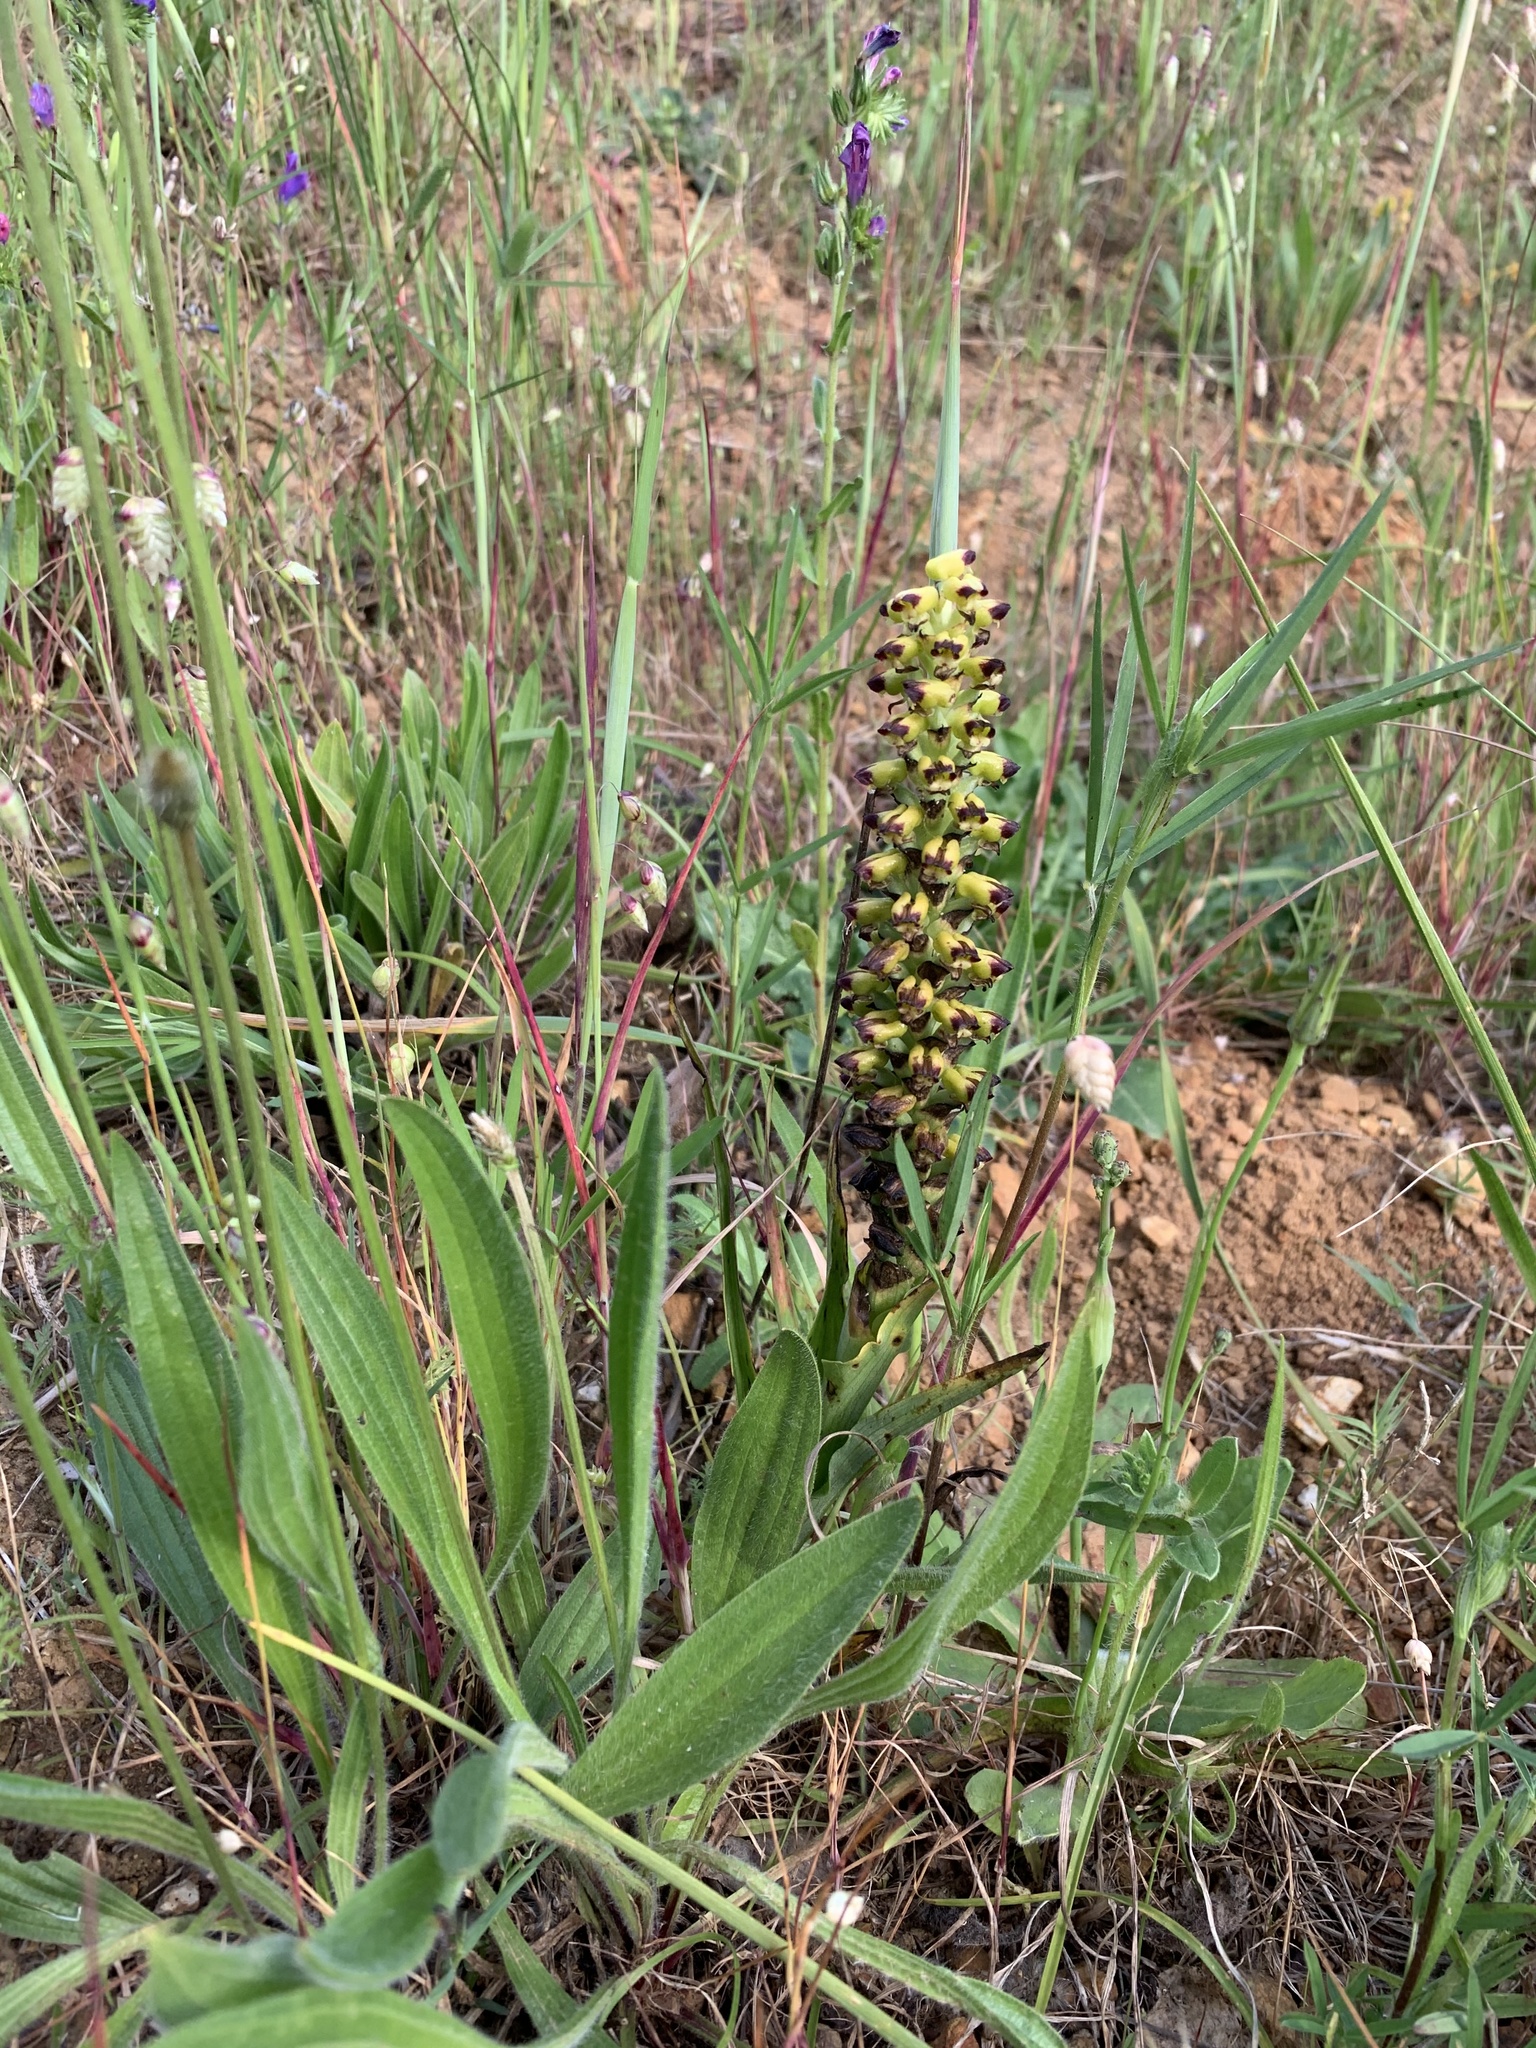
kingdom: Plantae
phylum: Tracheophyta
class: Liliopsida
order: Asparagales
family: Orchidaceae
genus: Corycium
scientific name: Corycium orobanchoides
